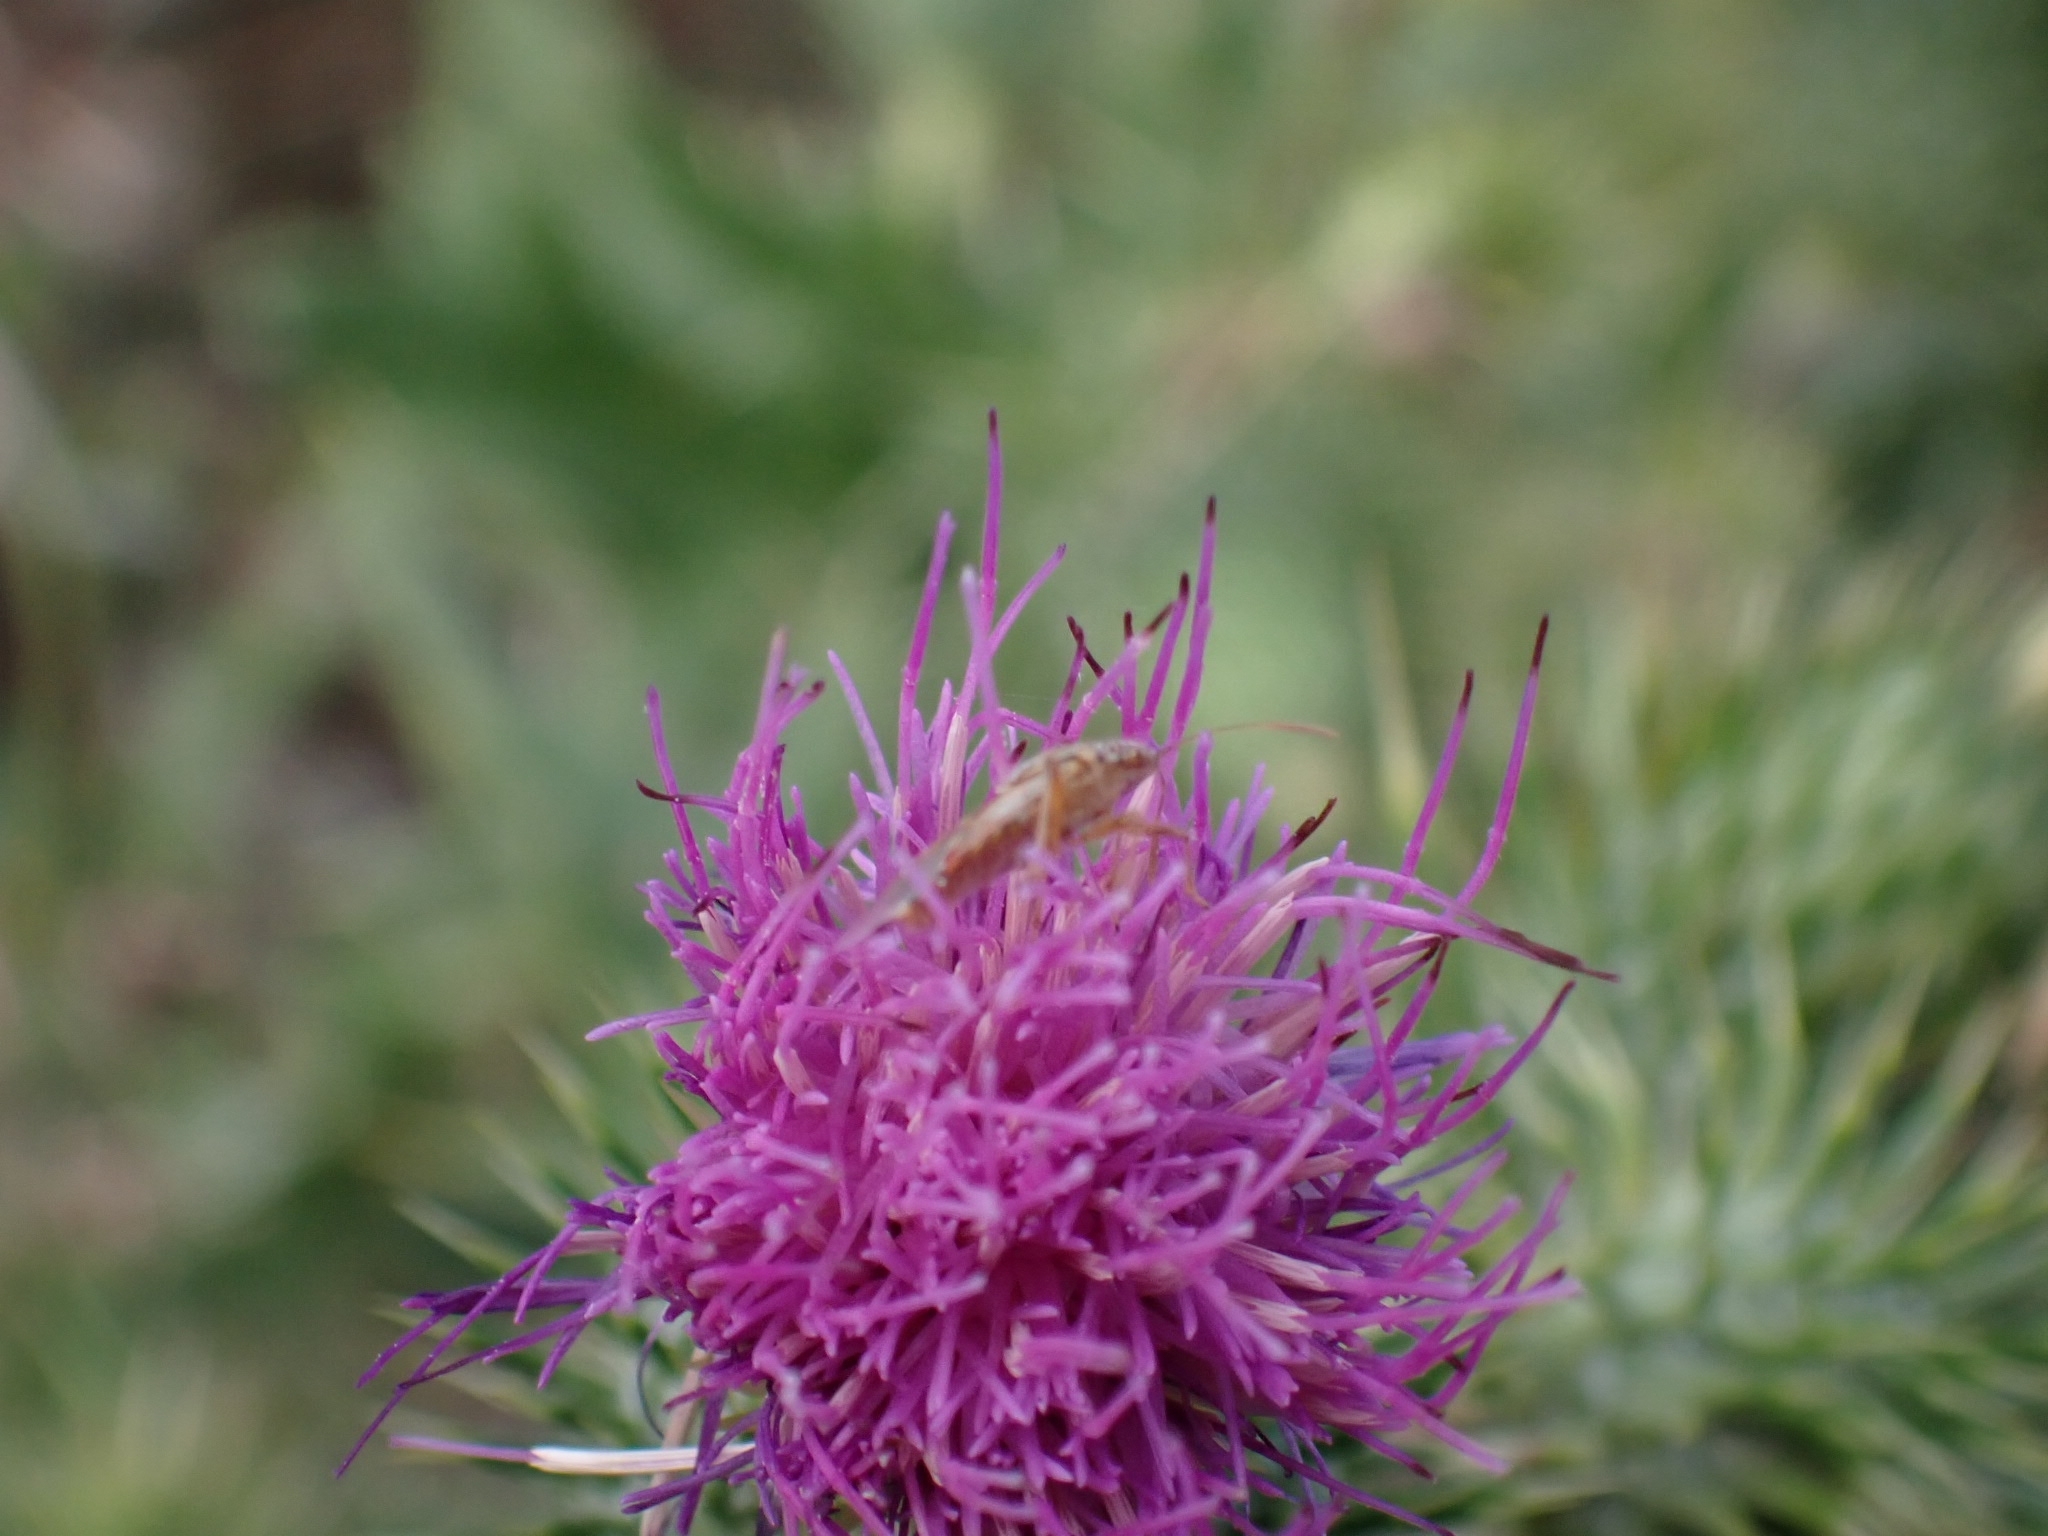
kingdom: Animalia
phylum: Arthropoda
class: Insecta
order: Hemiptera
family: Rhopalidae
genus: Liorhyssus
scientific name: Liorhyssus hyalinus
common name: Scentless plant bug
